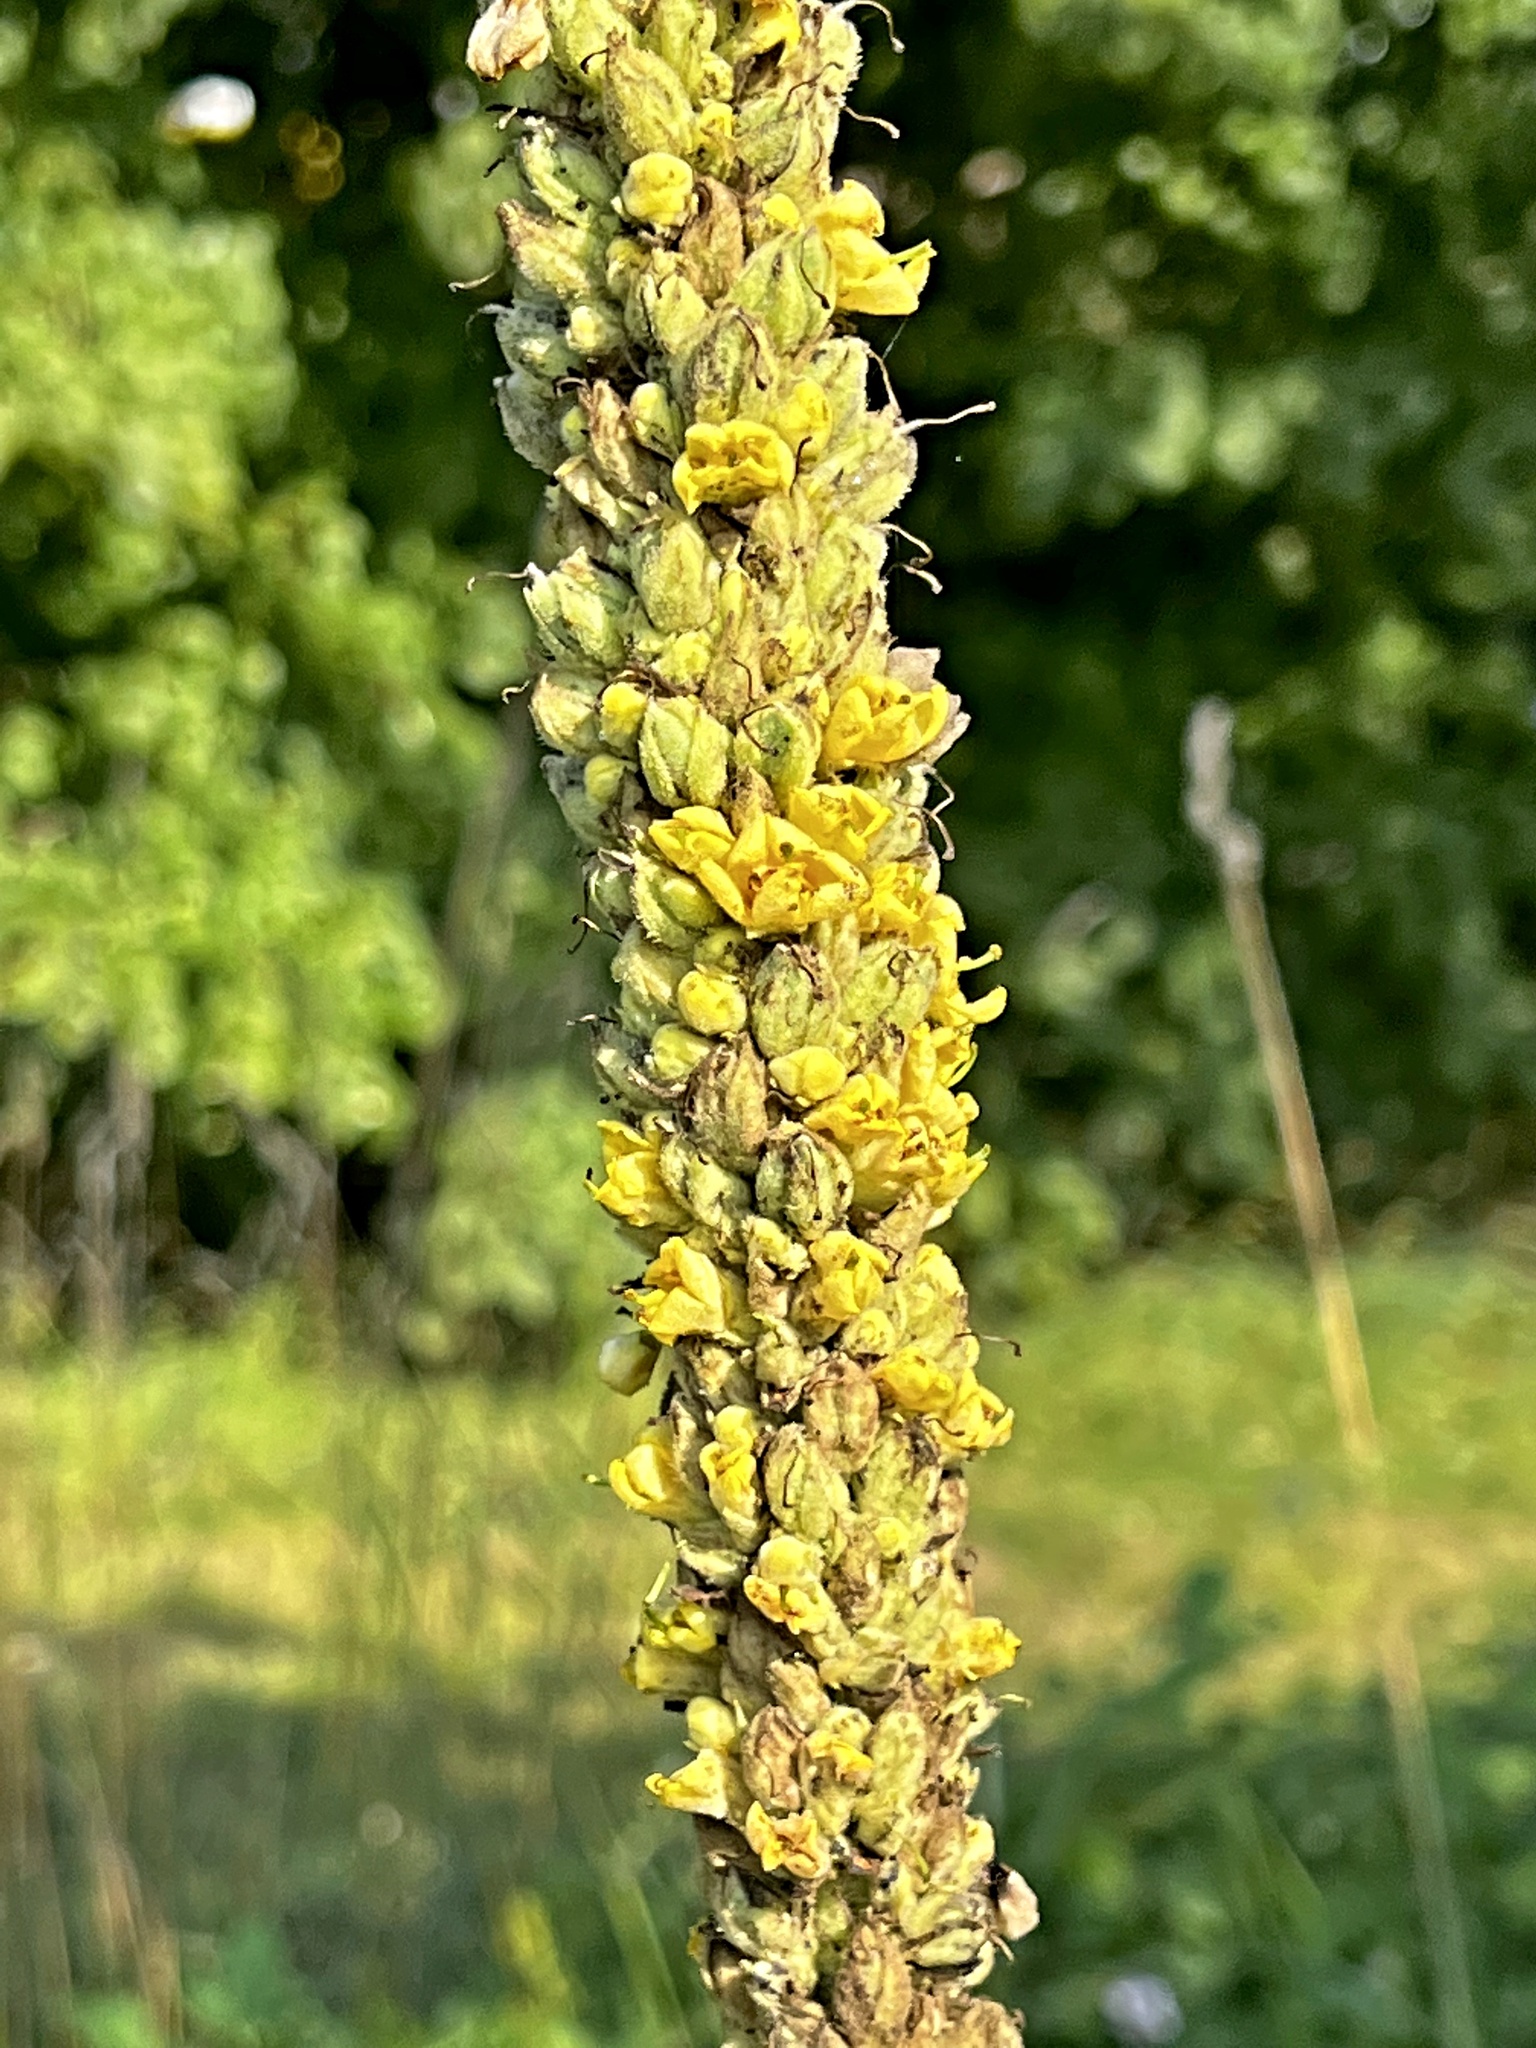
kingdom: Plantae
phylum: Tracheophyta
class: Magnoliopsida
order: Lamiales
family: Scrophulariaceae
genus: Verbascum
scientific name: Verbascum thapsus
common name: Common mullein
